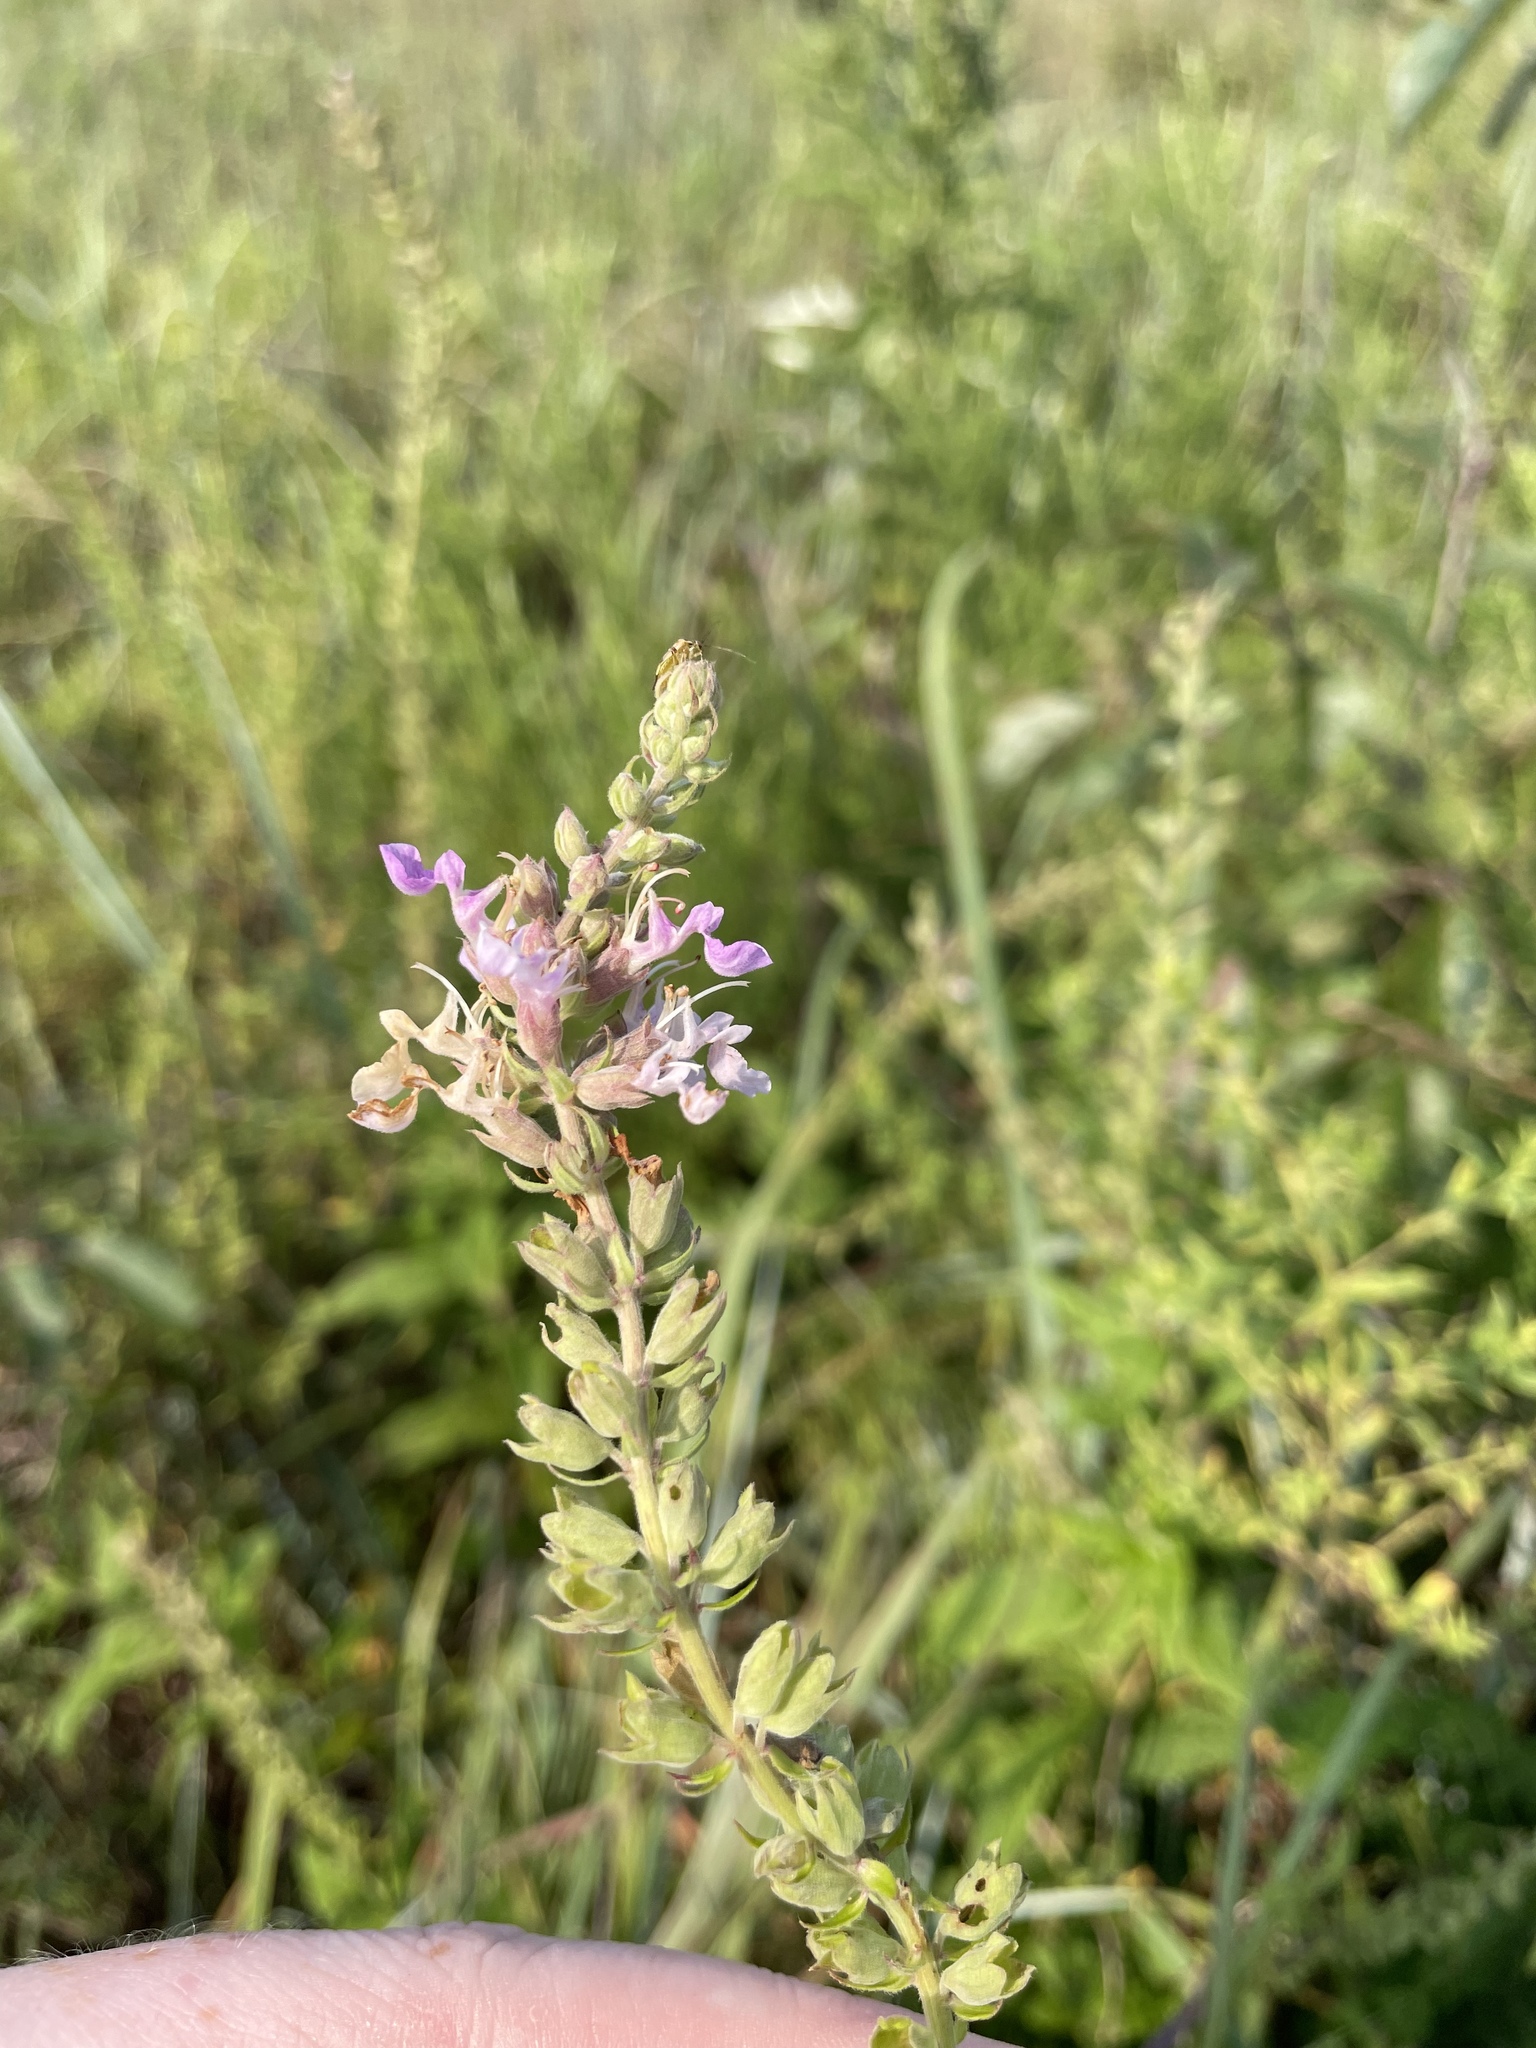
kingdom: Plantae
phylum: Tracheophyta
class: Magnoliopsida
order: Lamiales
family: Lamiaceae
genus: Teucrium
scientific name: Teucrium canadense
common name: American germander
